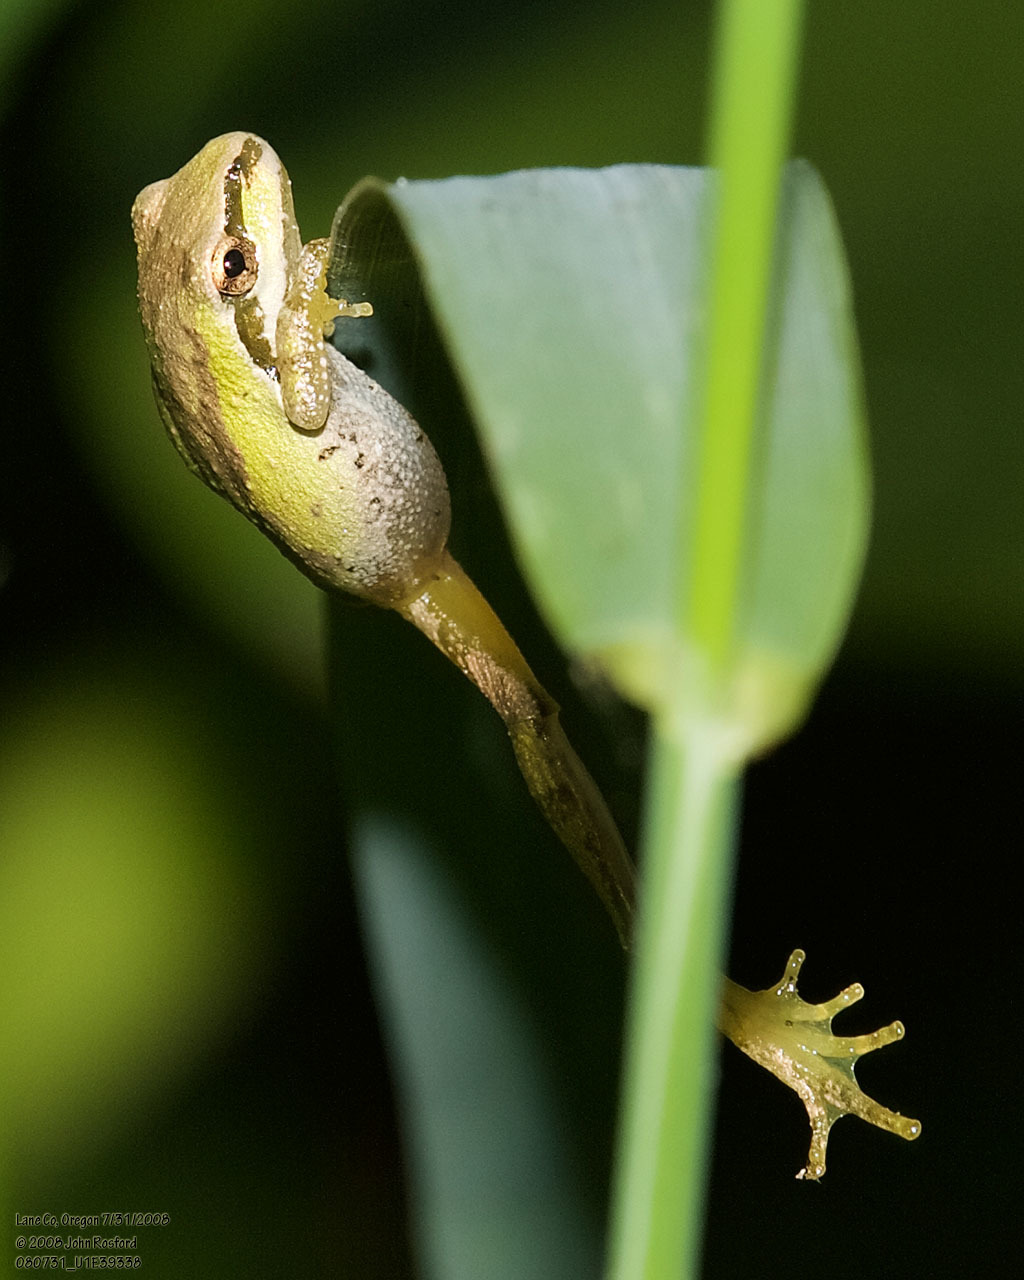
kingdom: Animalia
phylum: Chordata
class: Amphibia
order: Anura
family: Hylidae
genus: Pseudacris
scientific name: Pseudacris regilla
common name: Pacific chorus frog
